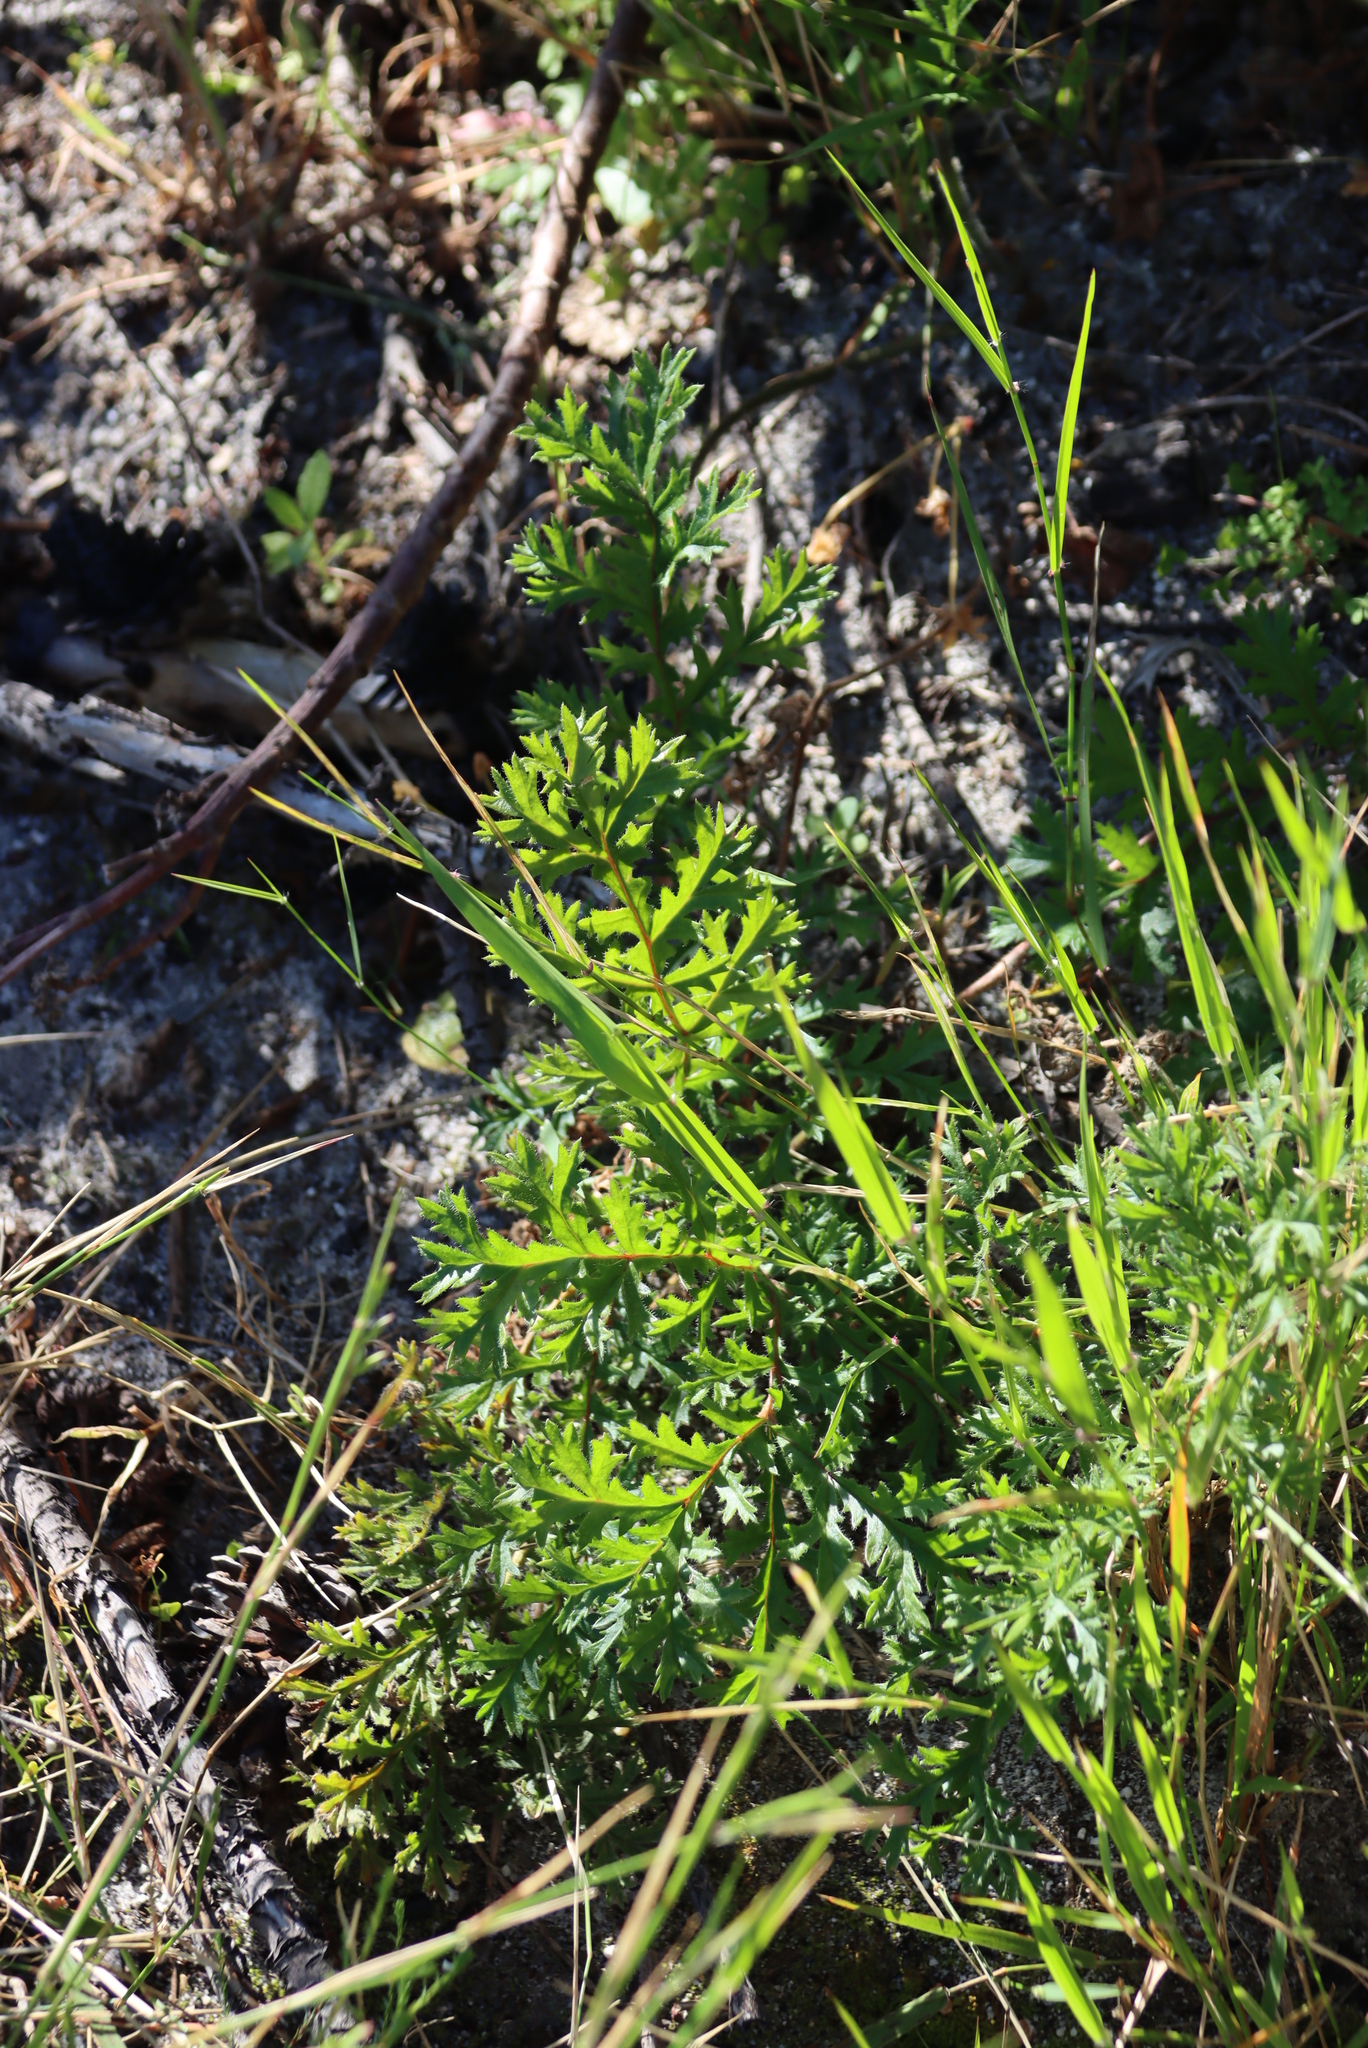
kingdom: Plantae
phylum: Tracheophyta
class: Magnoliopsida
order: Geraniales
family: Geraniaceae
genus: Pelargonium
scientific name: Pelargonium triste
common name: Night-scent pelargonium
